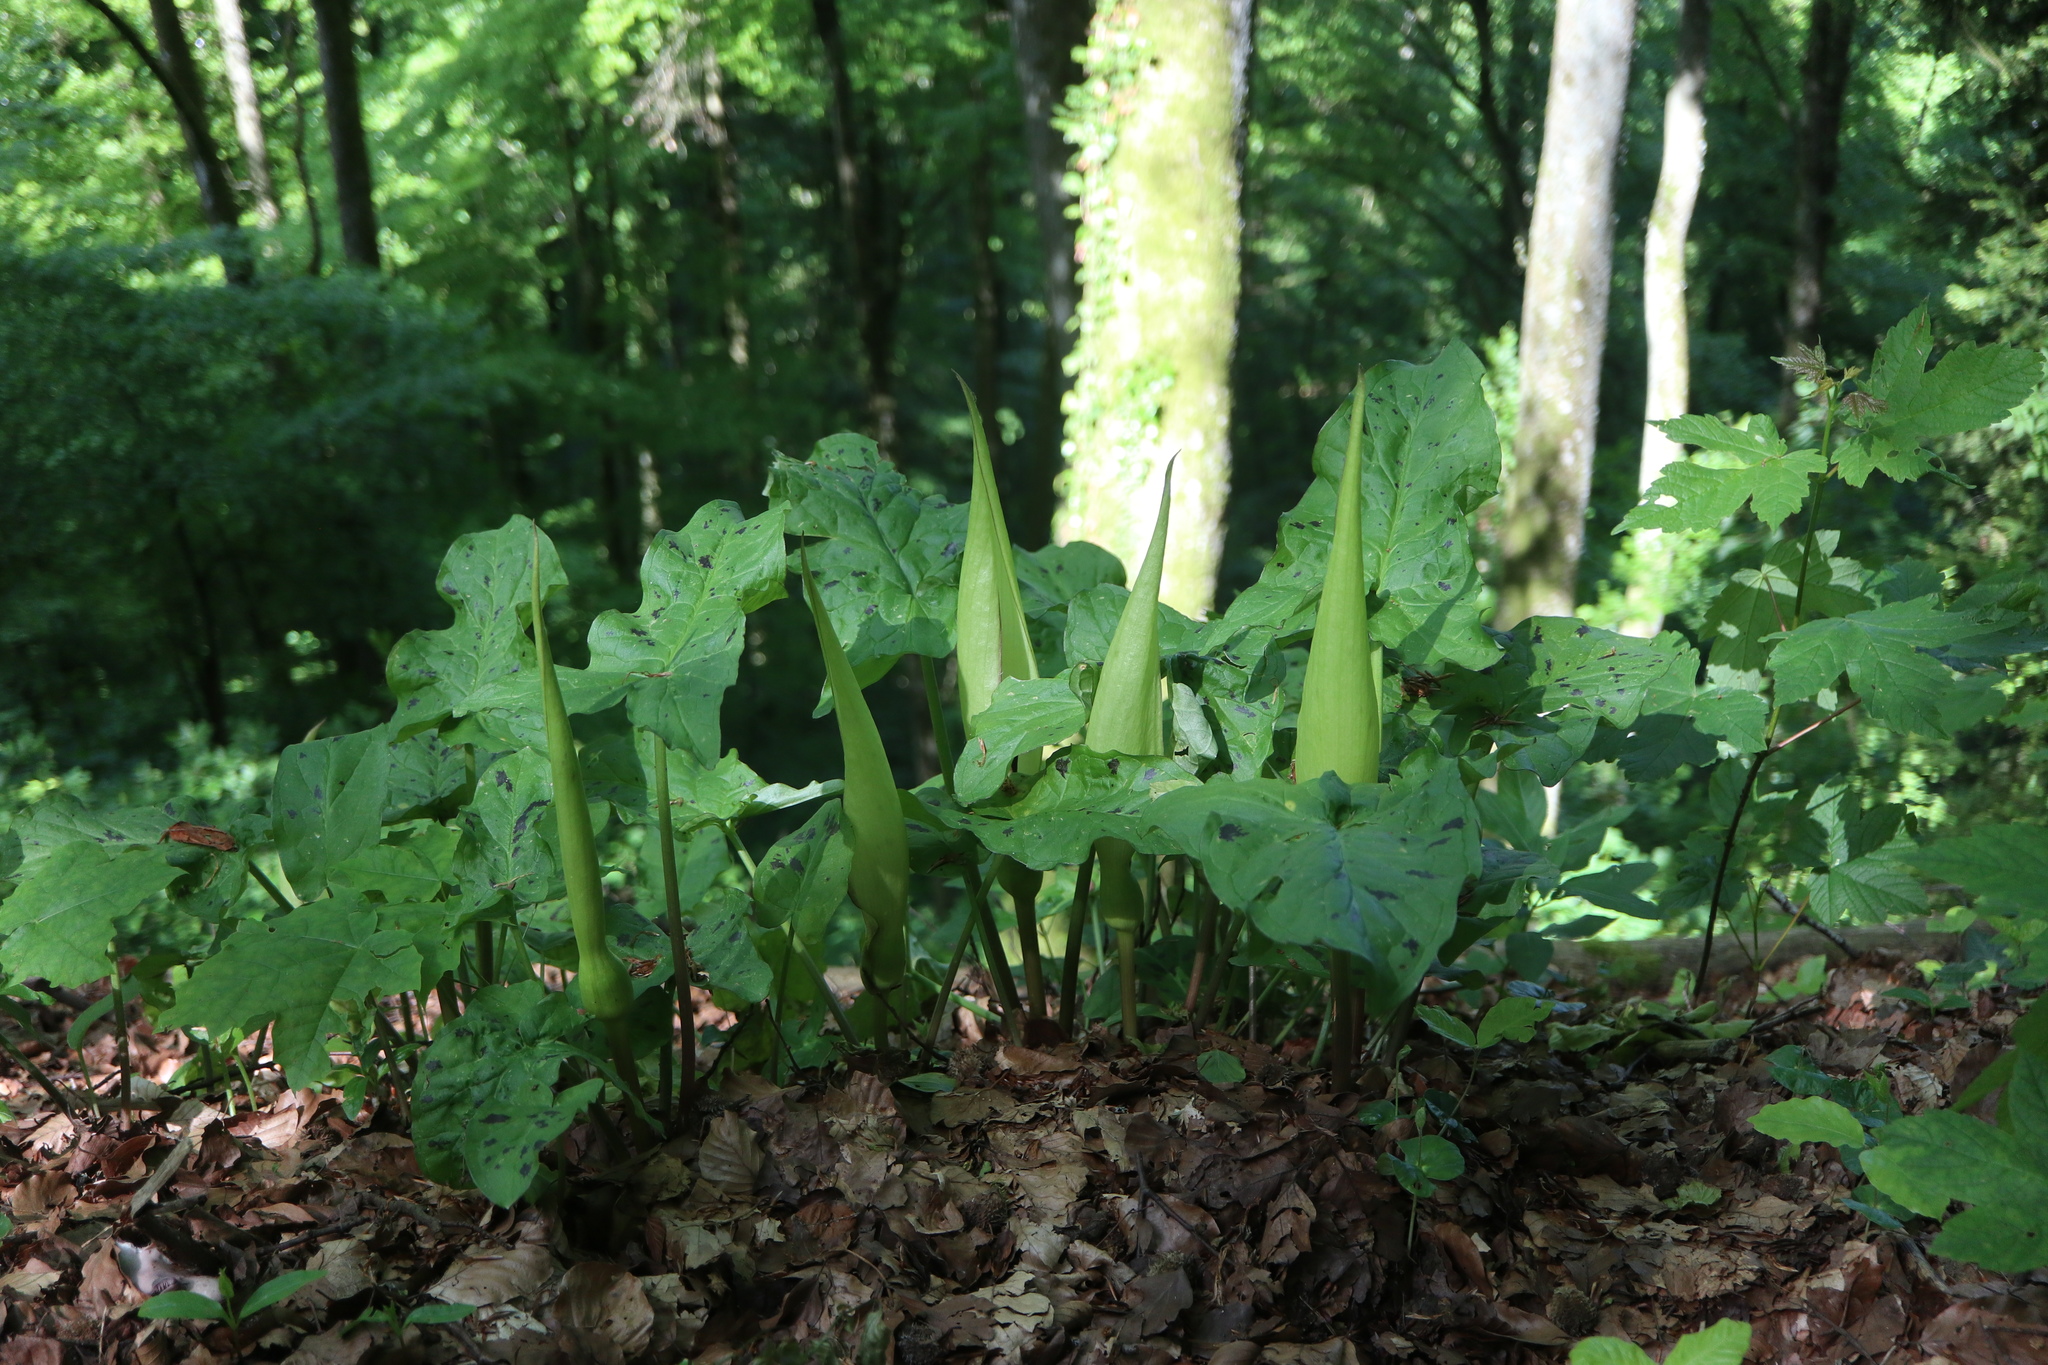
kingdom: Plantae
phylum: Tracheophyta
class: Liliopsida
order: Alismatales
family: Araceae
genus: Arum
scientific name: Arum maculatum
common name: Lords-and-ladies
